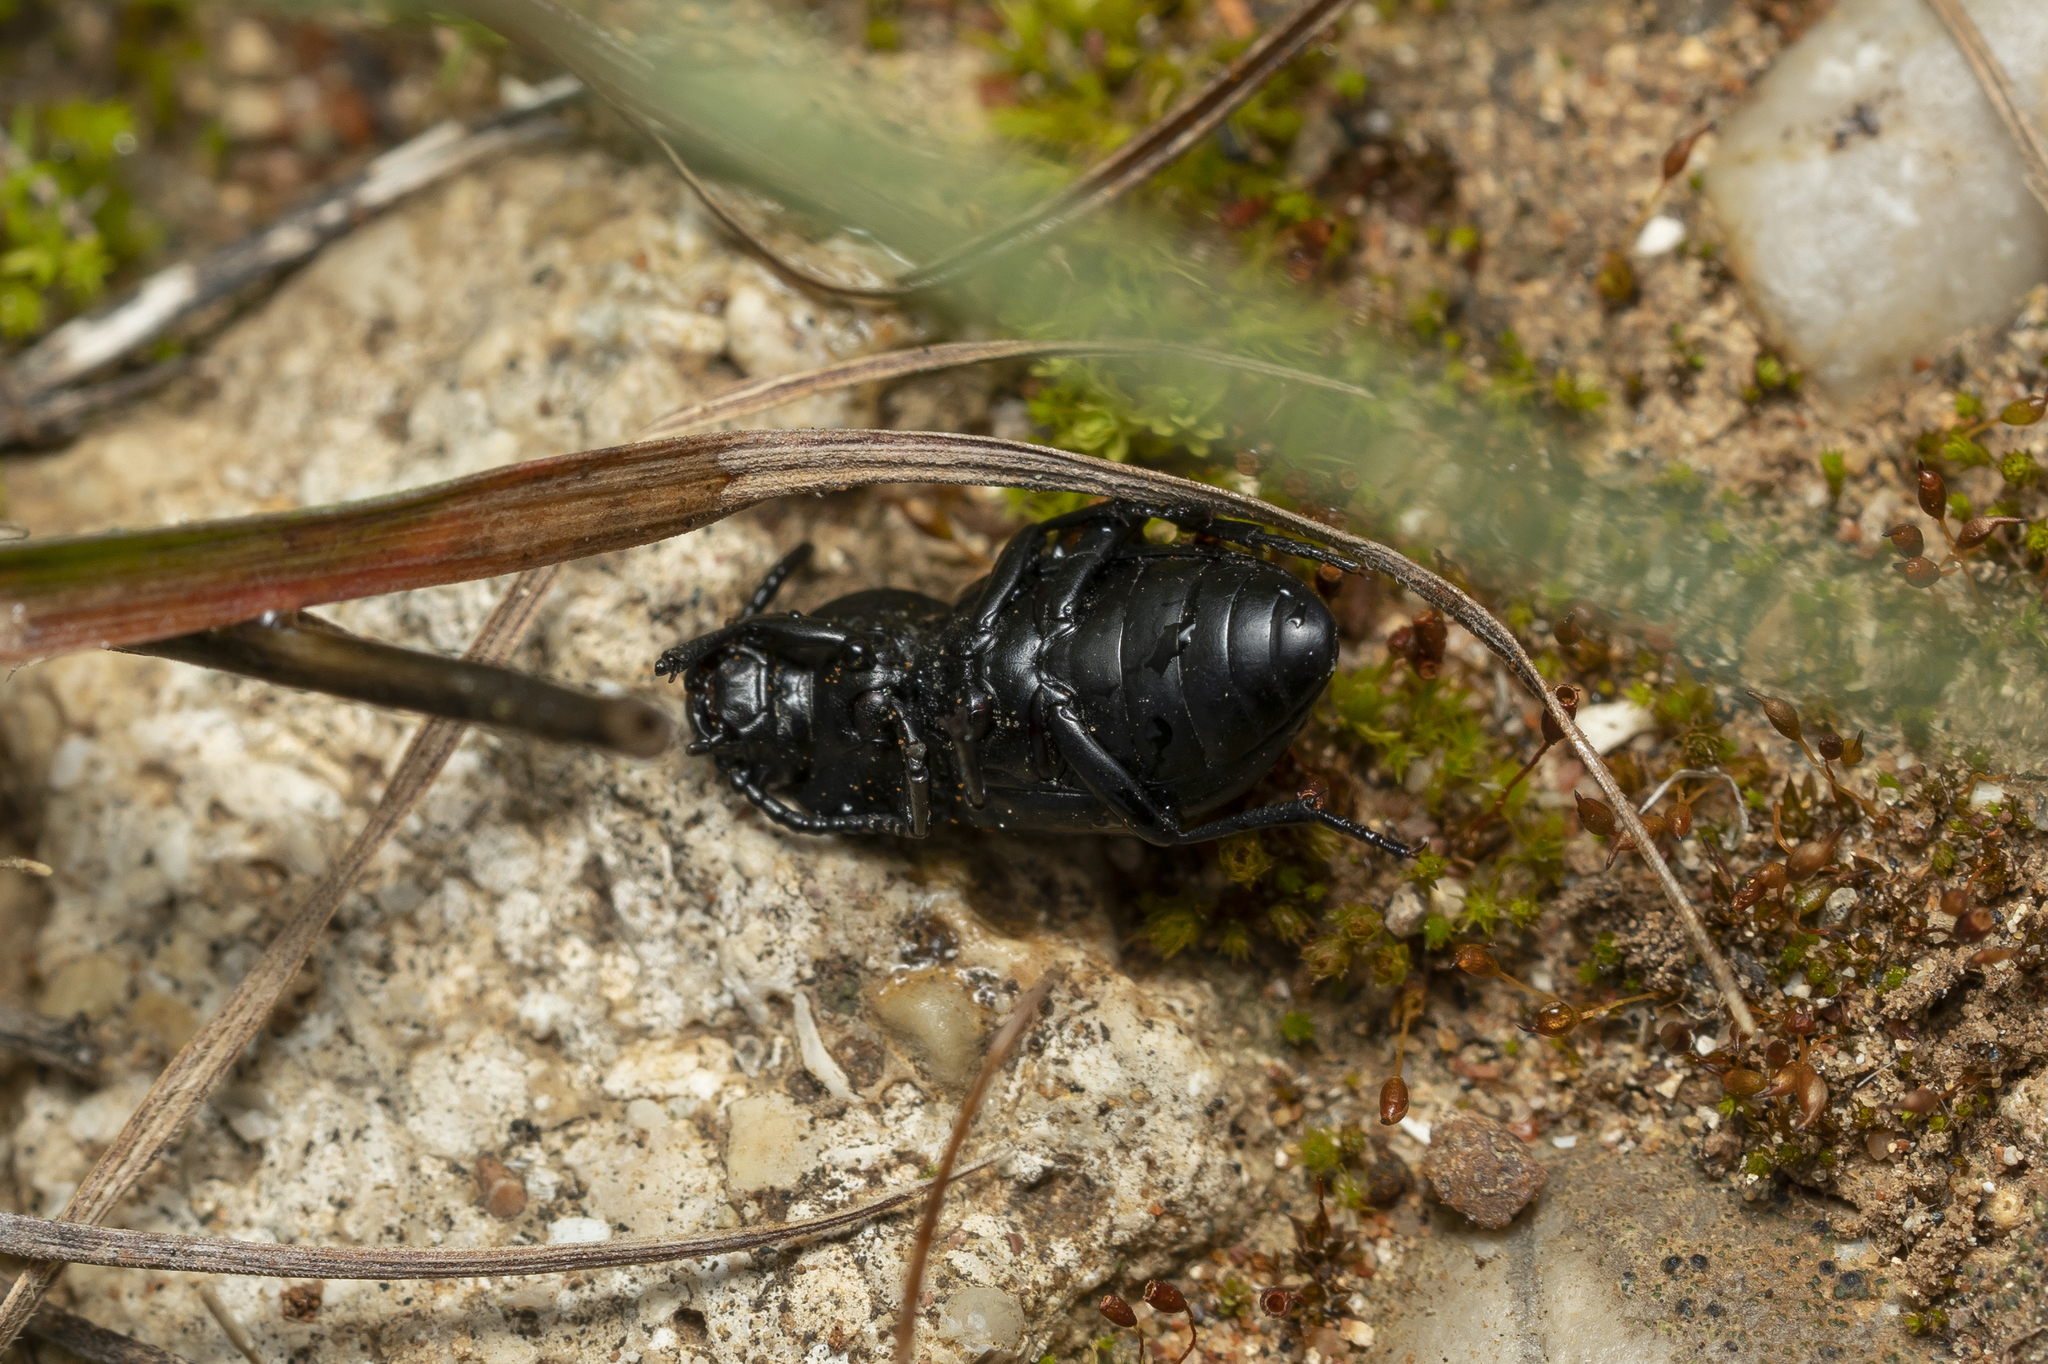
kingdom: Animalia
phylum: Arthropoda
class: Insecta
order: Coleoptera
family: Tenebrionidae
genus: Dailognatha
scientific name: Dailognatha quadricollis
